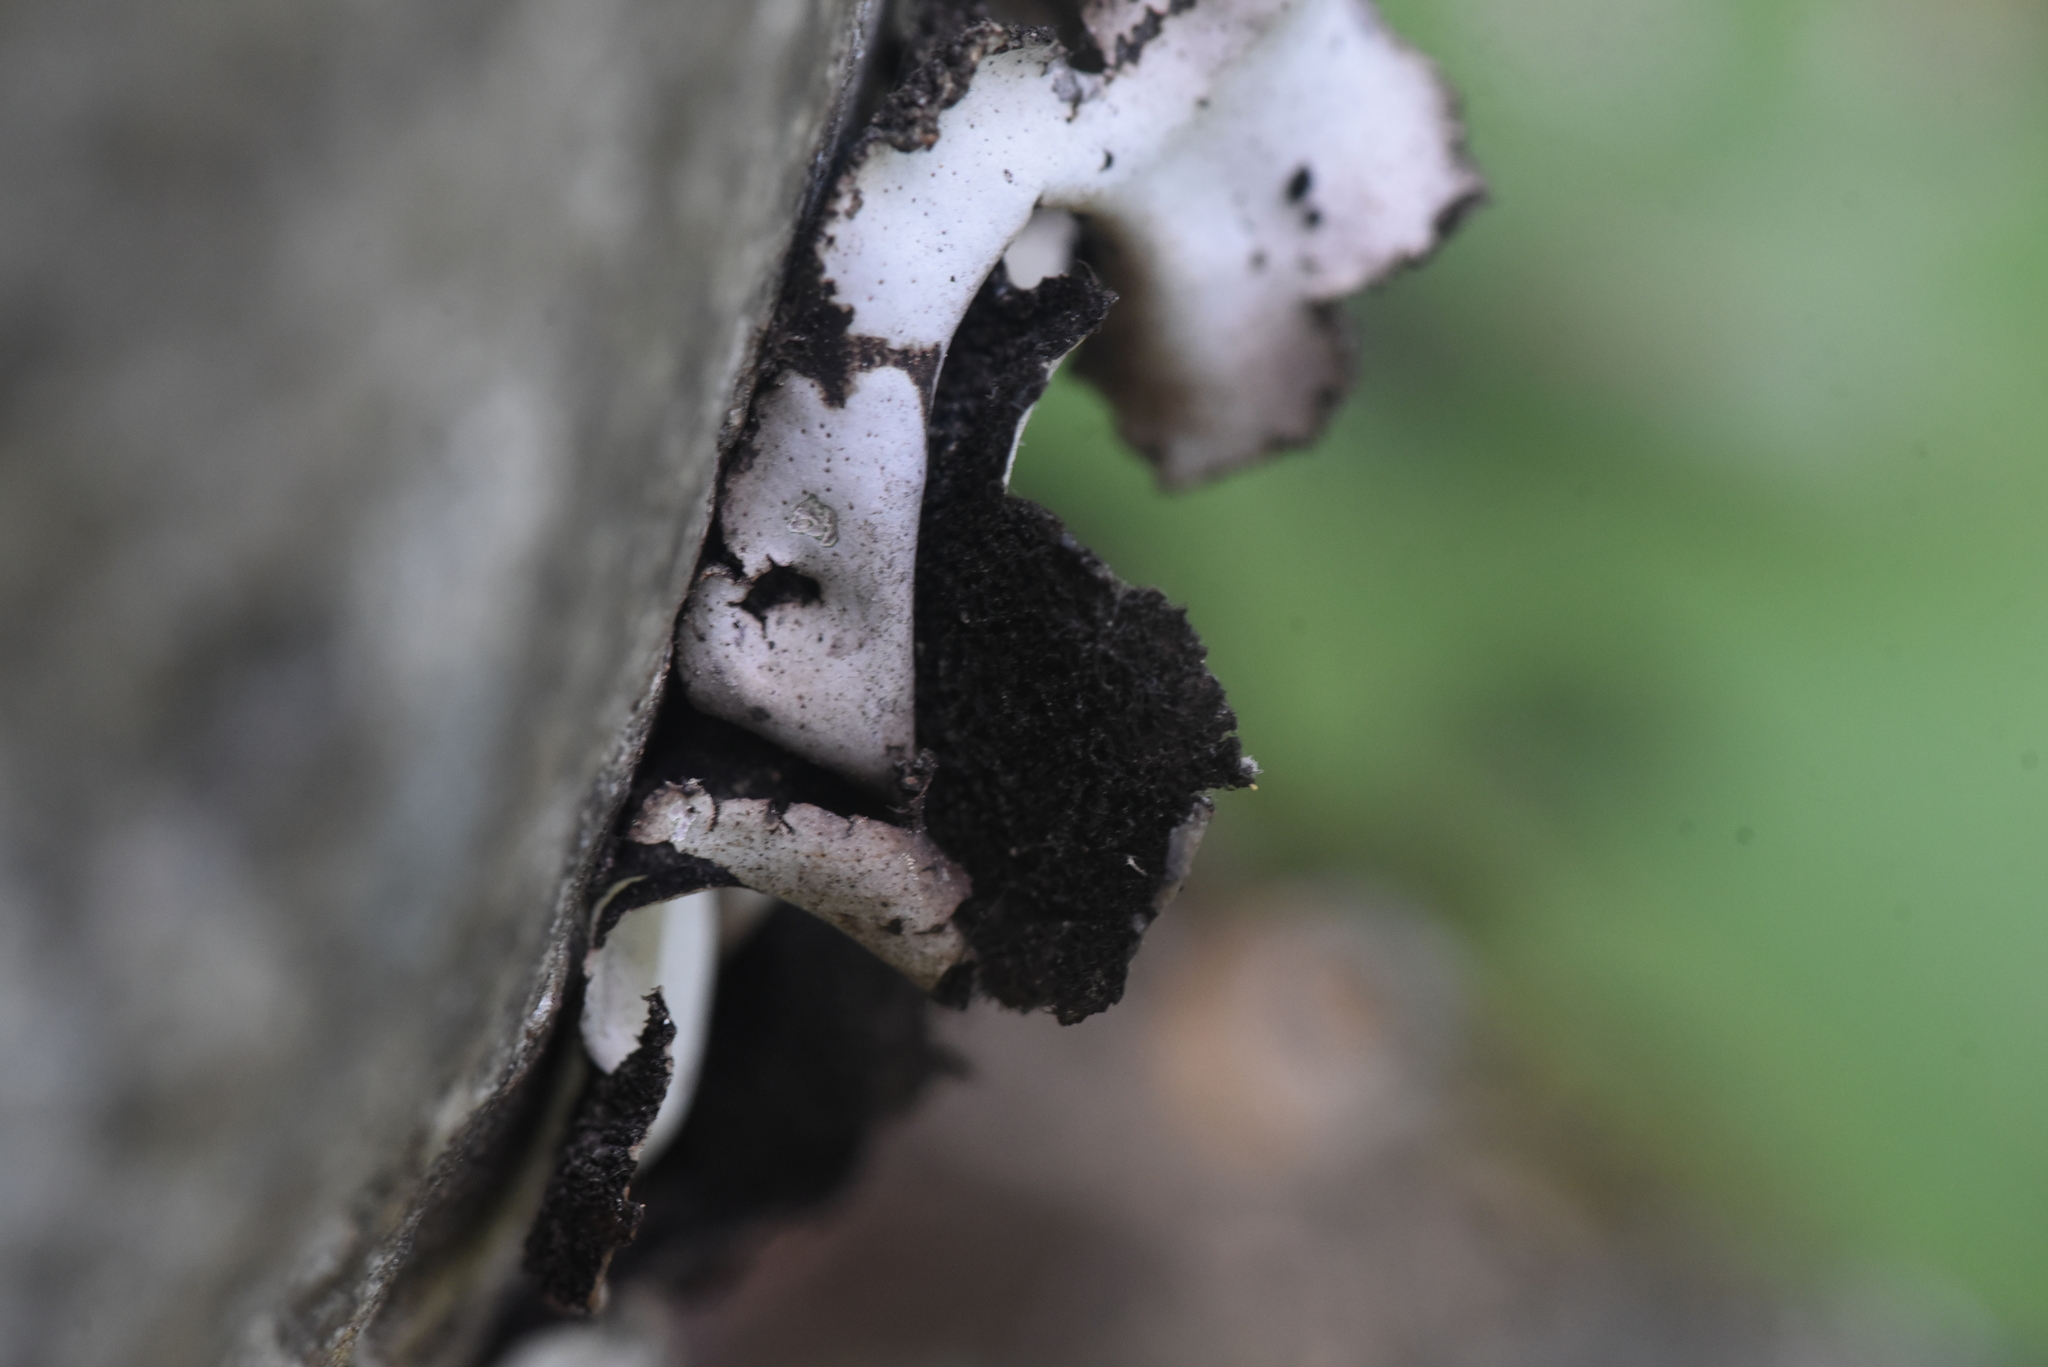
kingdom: Fungi
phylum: Ascomycota
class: Lecanoromycetes
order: Umbilicariales
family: Umbilicariaceae
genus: Umbilicaria
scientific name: Umbilicaria americana
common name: Frosted rock tripe
